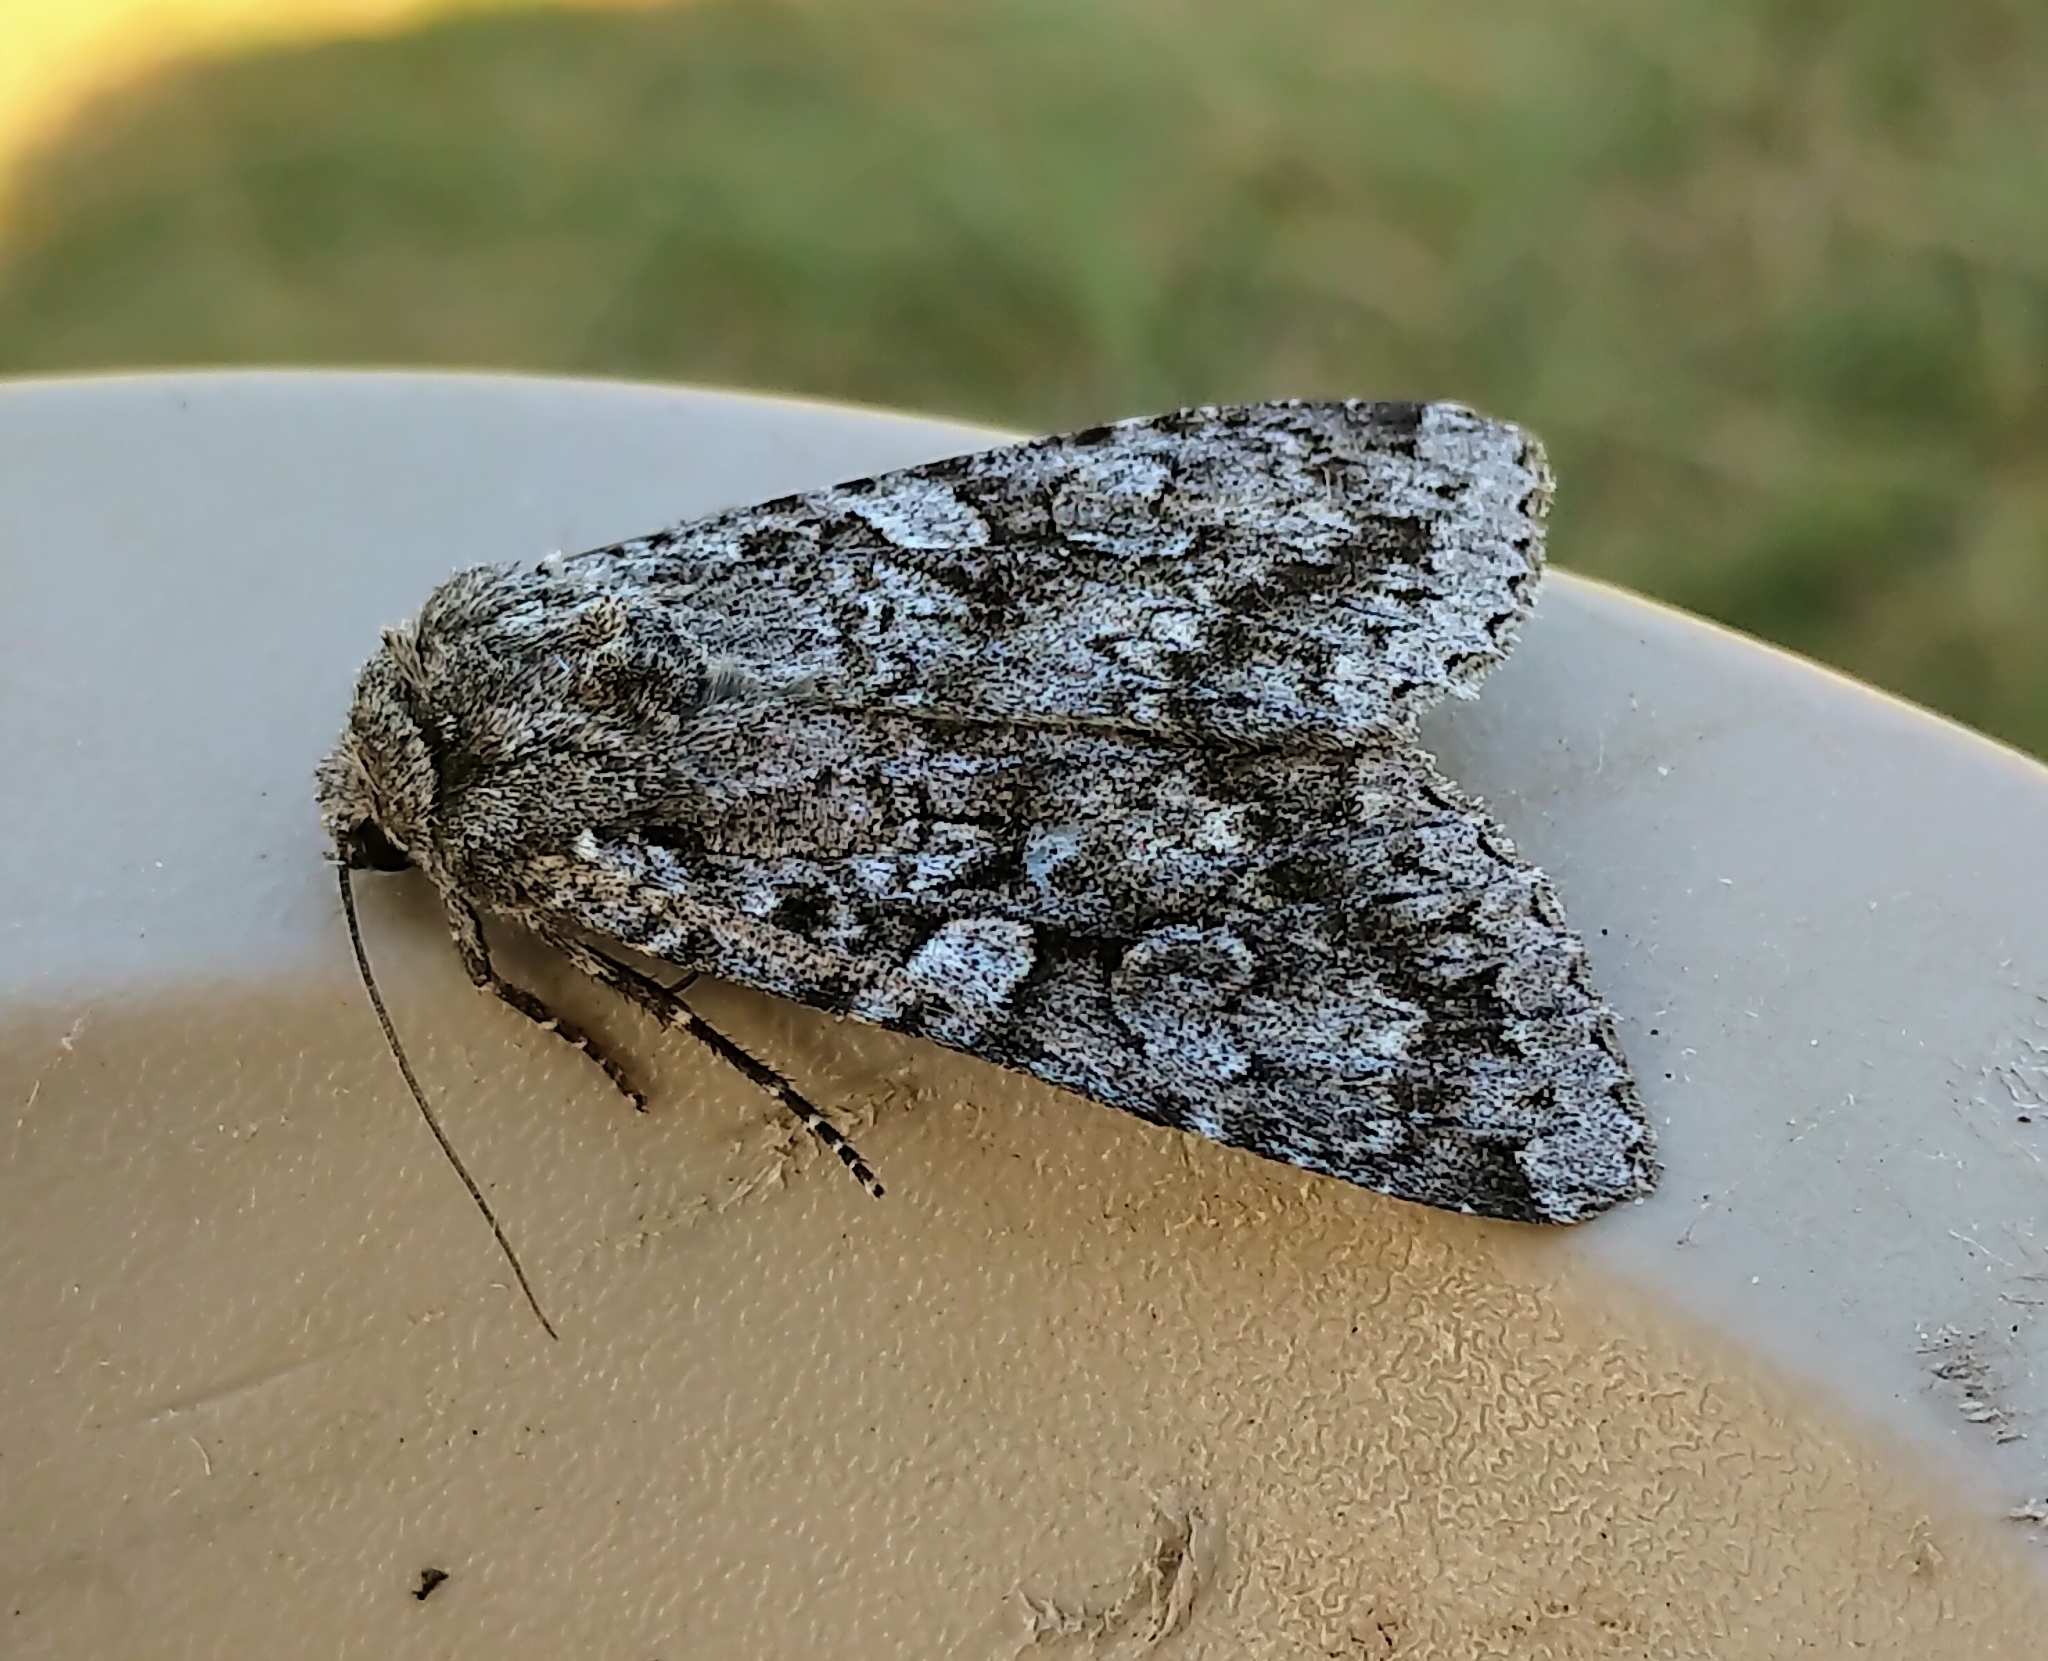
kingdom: Animalia
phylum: Arthropoda
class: Insecta
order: Lepidoptera
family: Noctuidae
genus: Eurois
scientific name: Eurois occulta
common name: Great brocade
